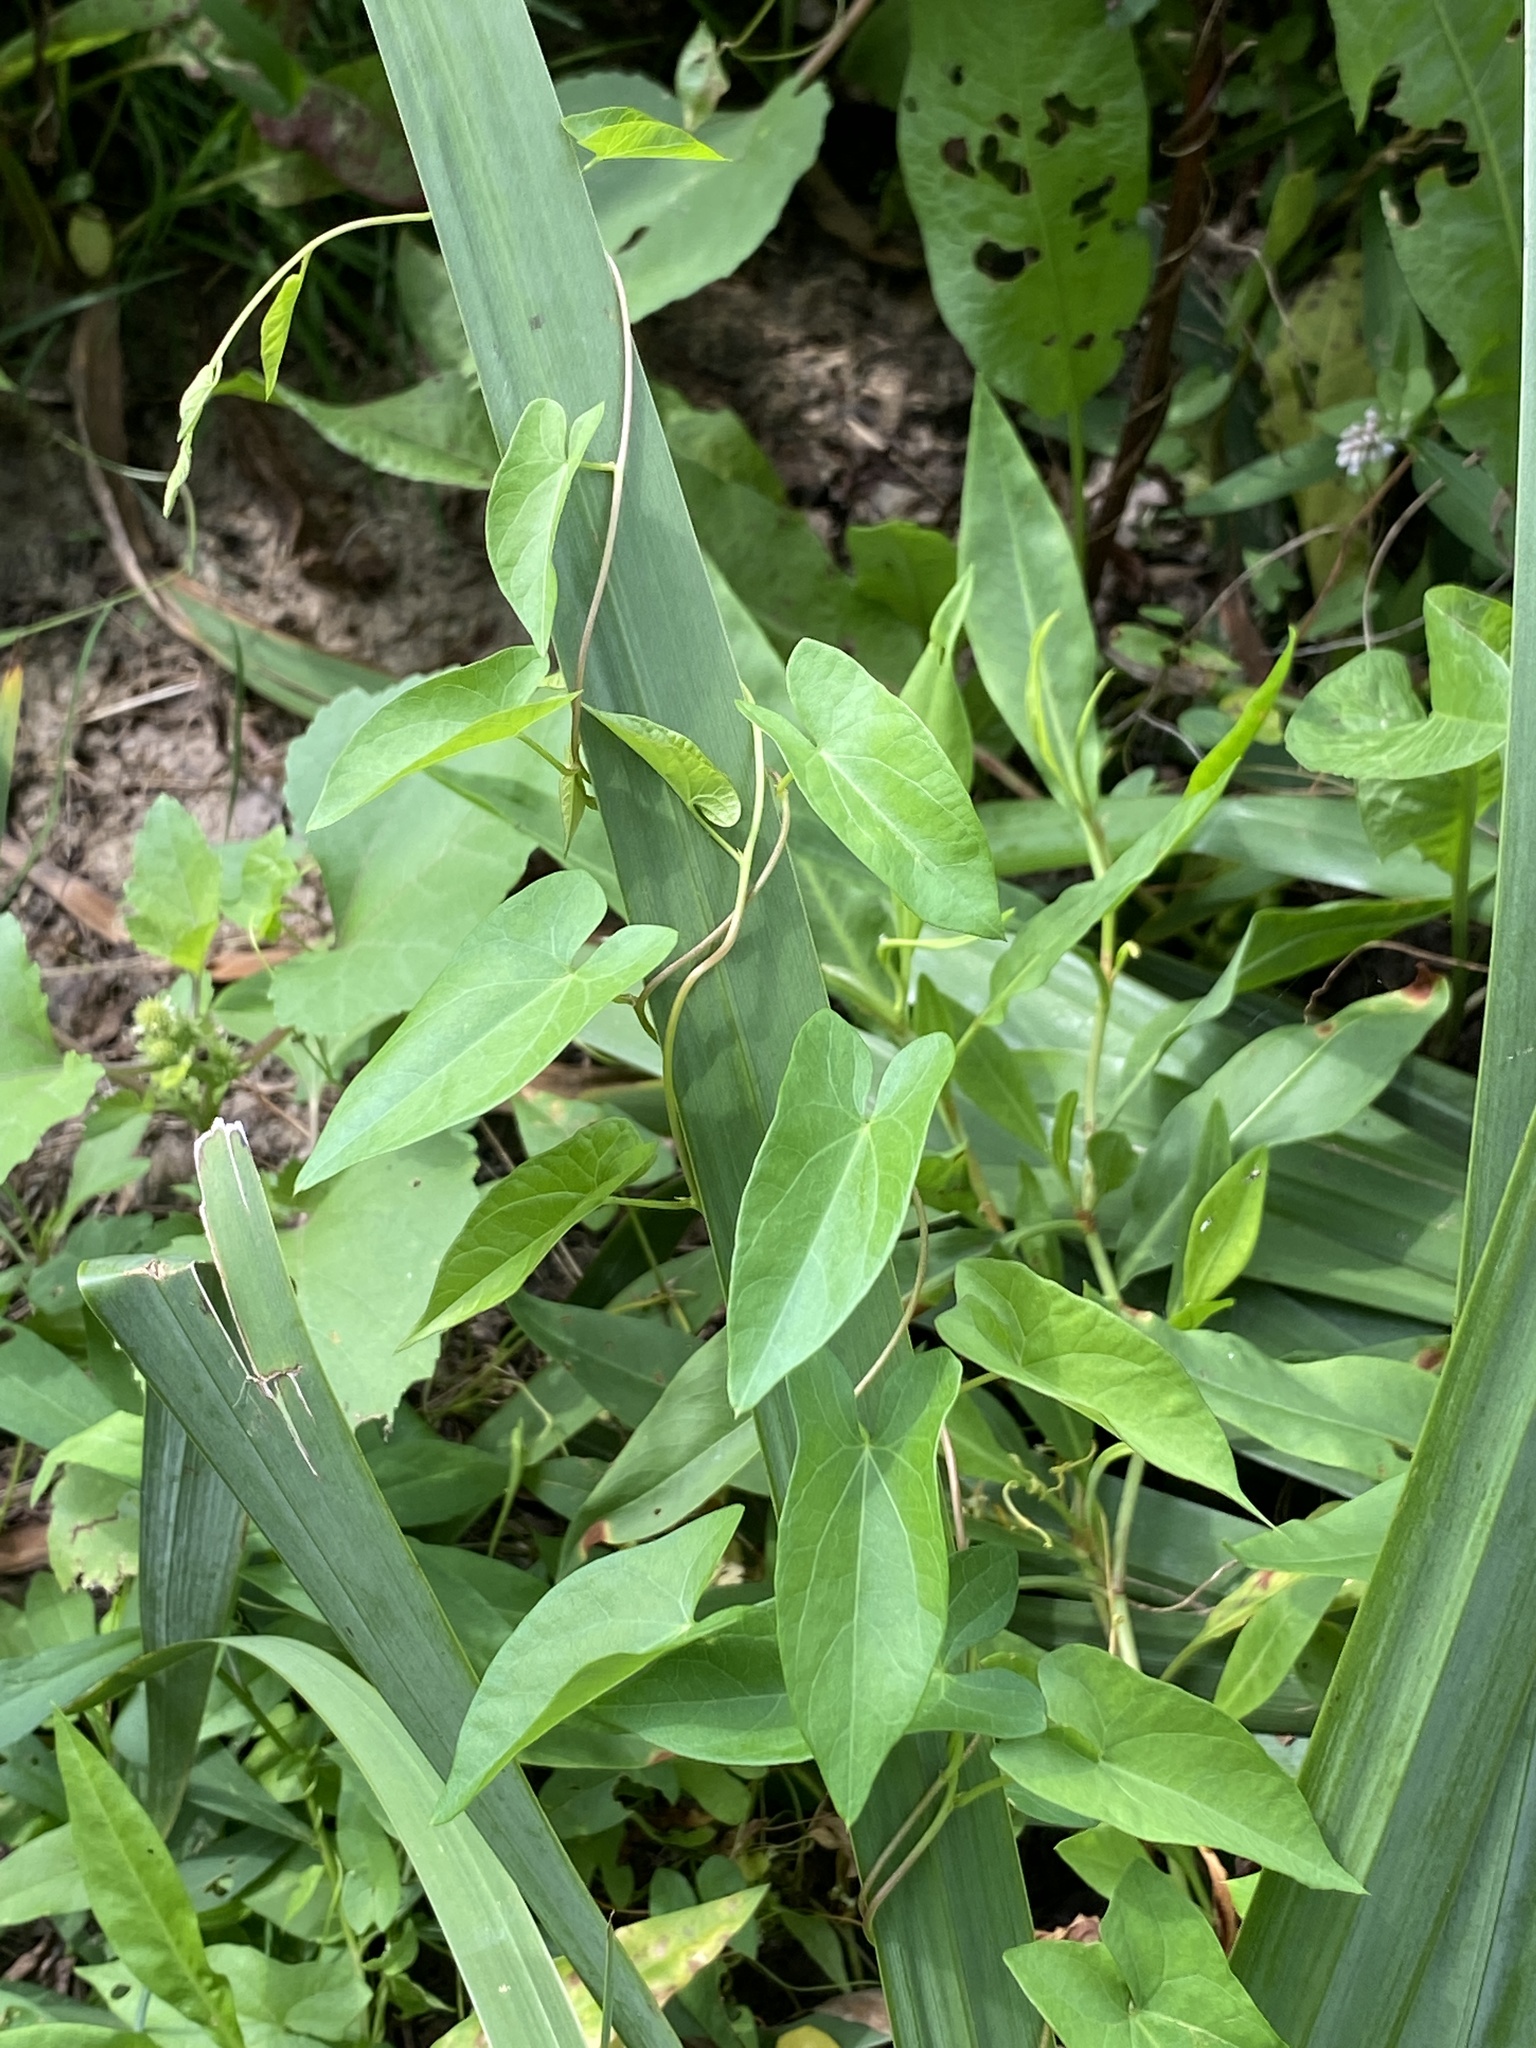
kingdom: Plantae
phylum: Tracheophyta
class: Magnoliopsida
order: Solanales
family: Convolvulaceae
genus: Calystegia
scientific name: Calystegia sepium
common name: Hedge bindweed
